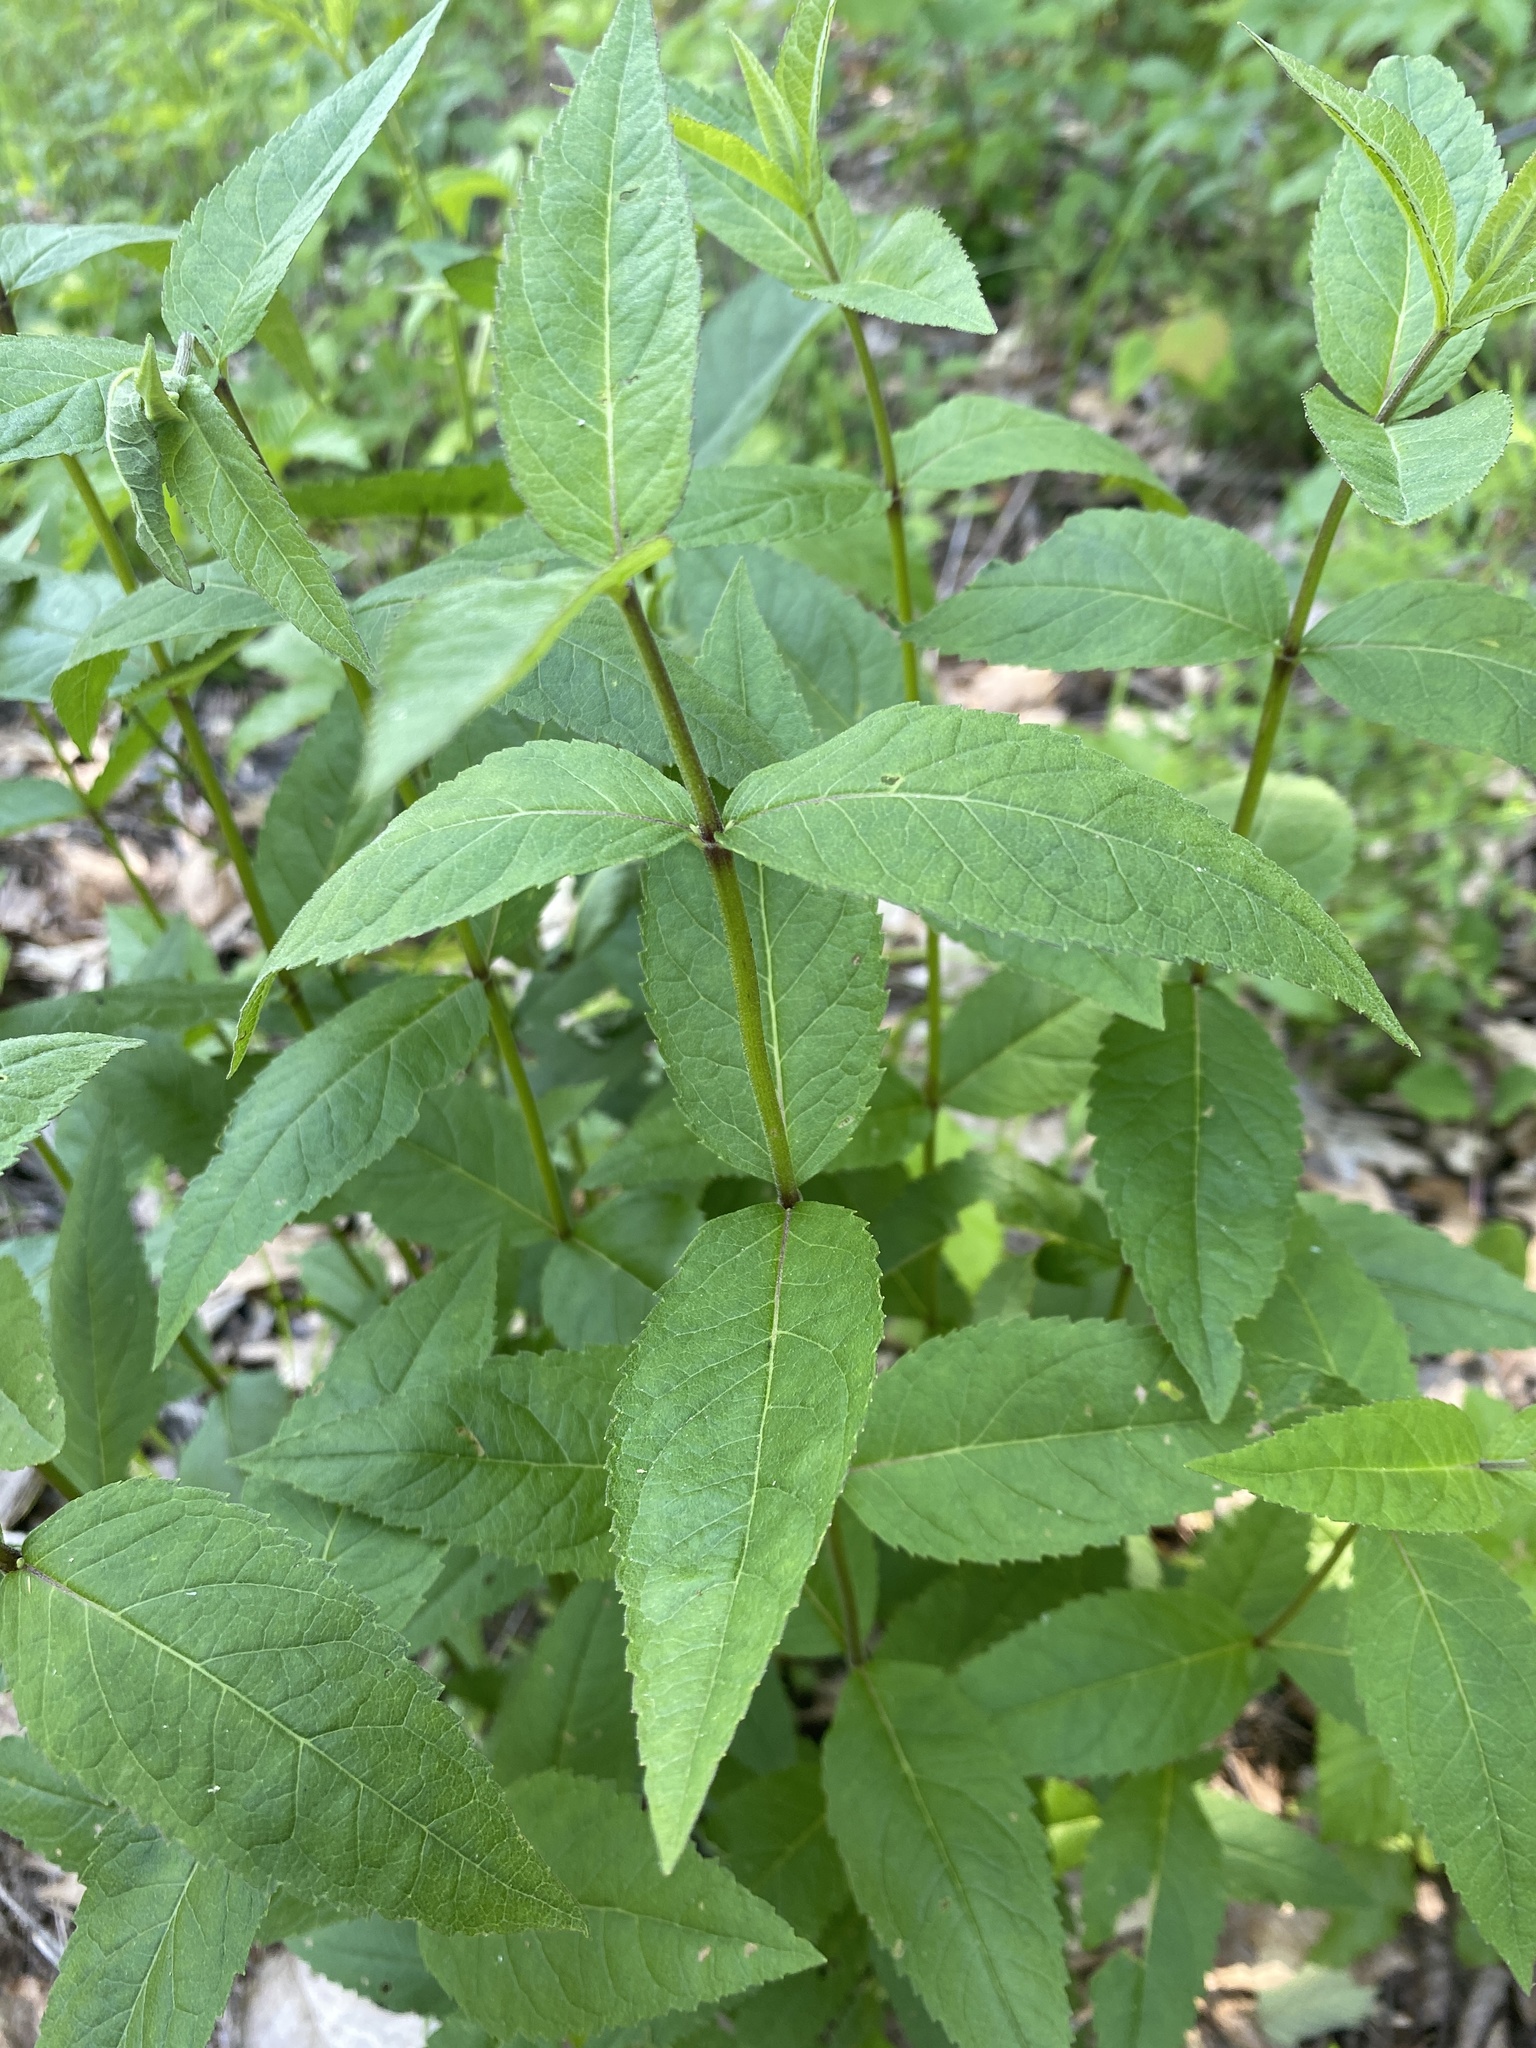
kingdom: Plantae
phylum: Tracheophyta
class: Magnoliopsida
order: Asterales
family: Asteraceae
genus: Eupatorium
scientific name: Eupatorium godfreyanum
